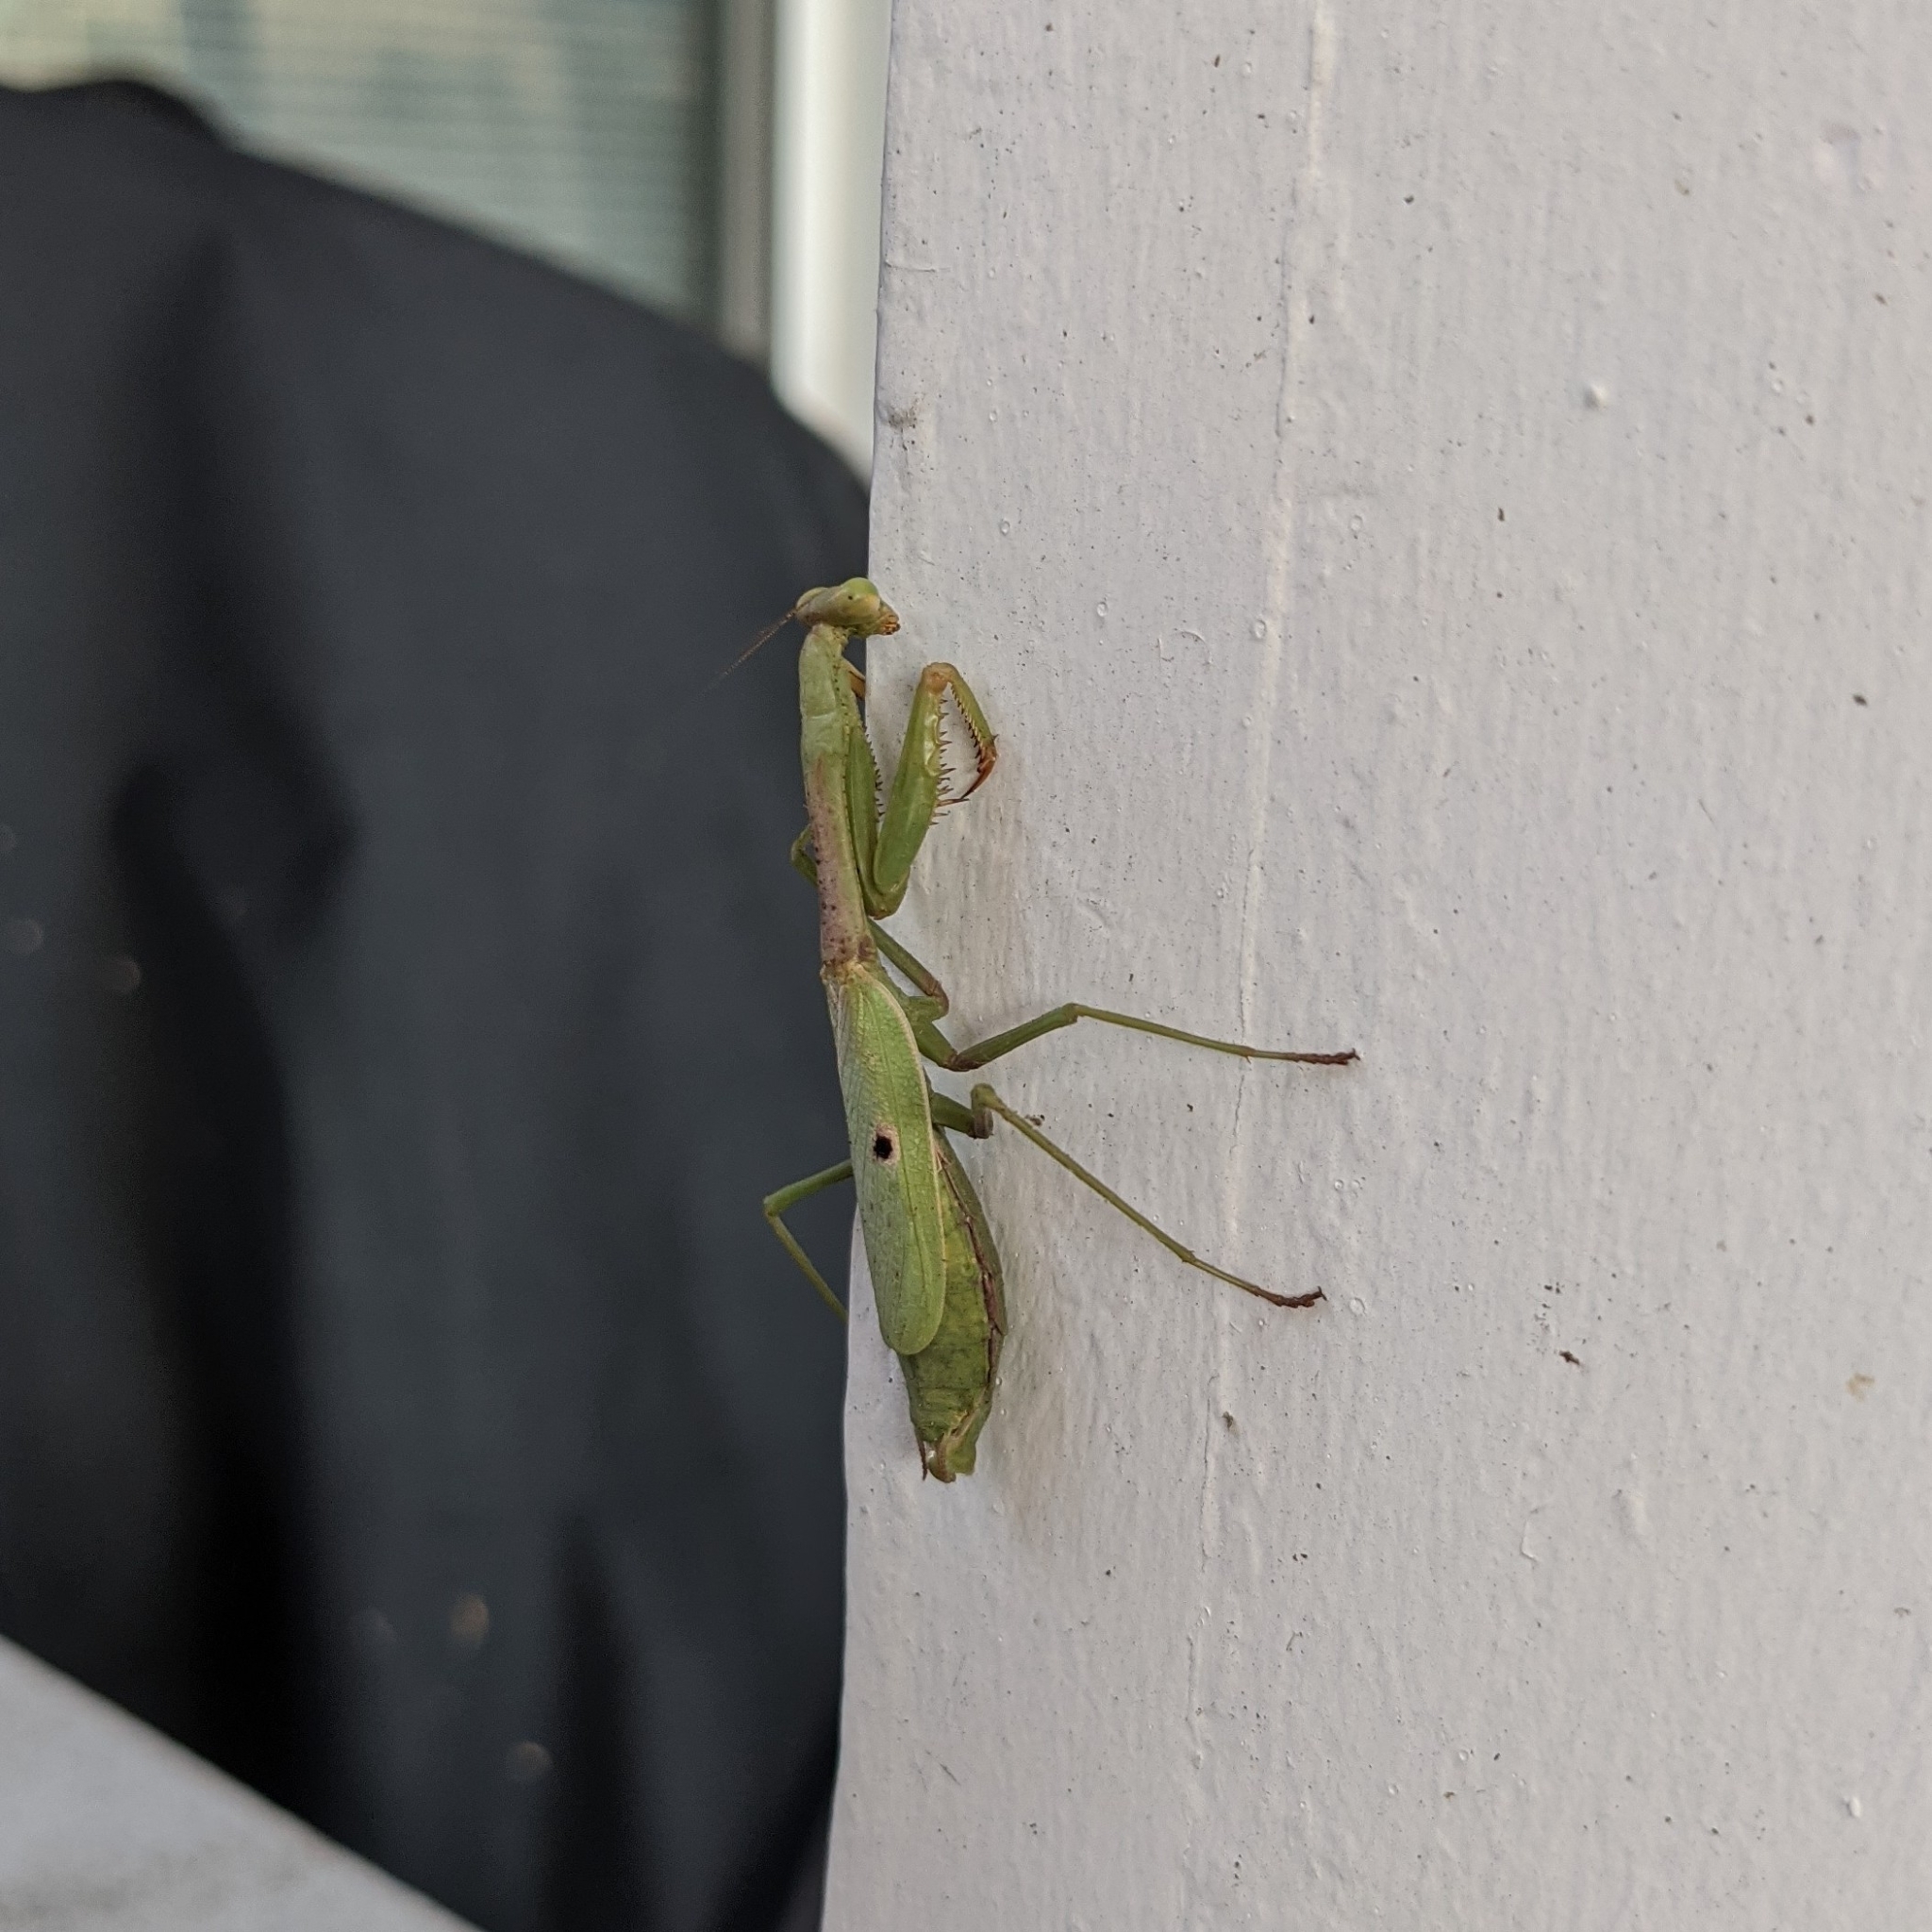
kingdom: Animalia
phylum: Arthropoda
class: Insecta
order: Mantodea
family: Mantidae
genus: Stagmomantis
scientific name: Stagmomantis carolina
